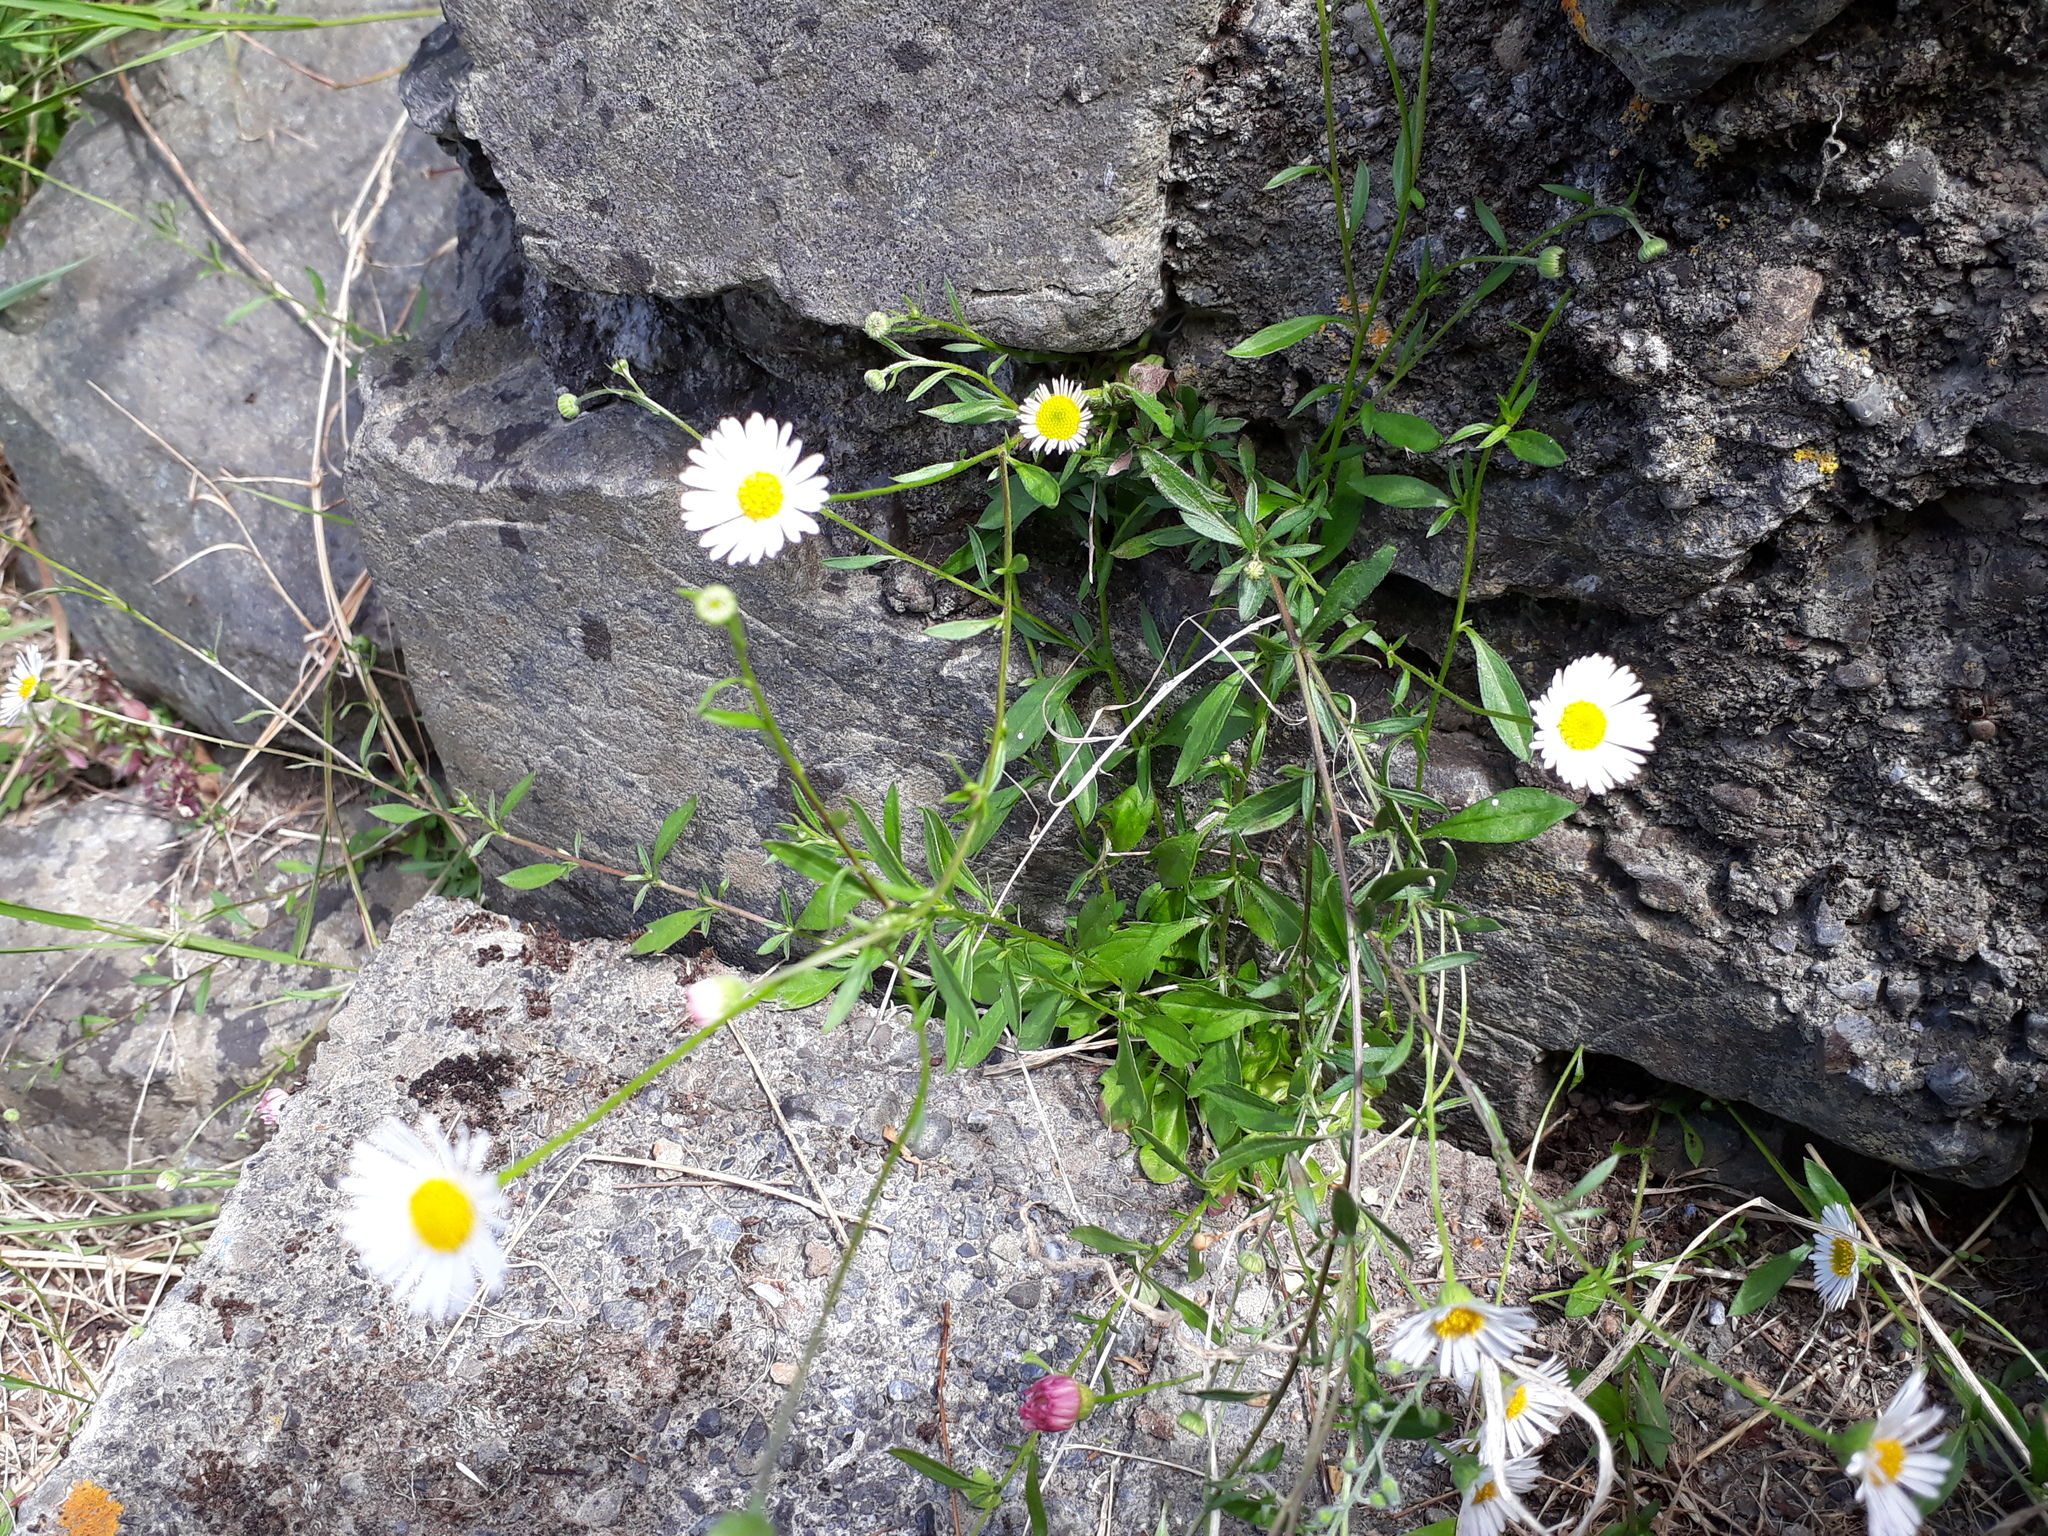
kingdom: Plantae
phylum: Tracheophyta
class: Magnoliopsida
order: Asterales
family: Asteraceae
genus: Erigeron
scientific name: Erigeron karvinskianus
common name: Mexican fleabane
